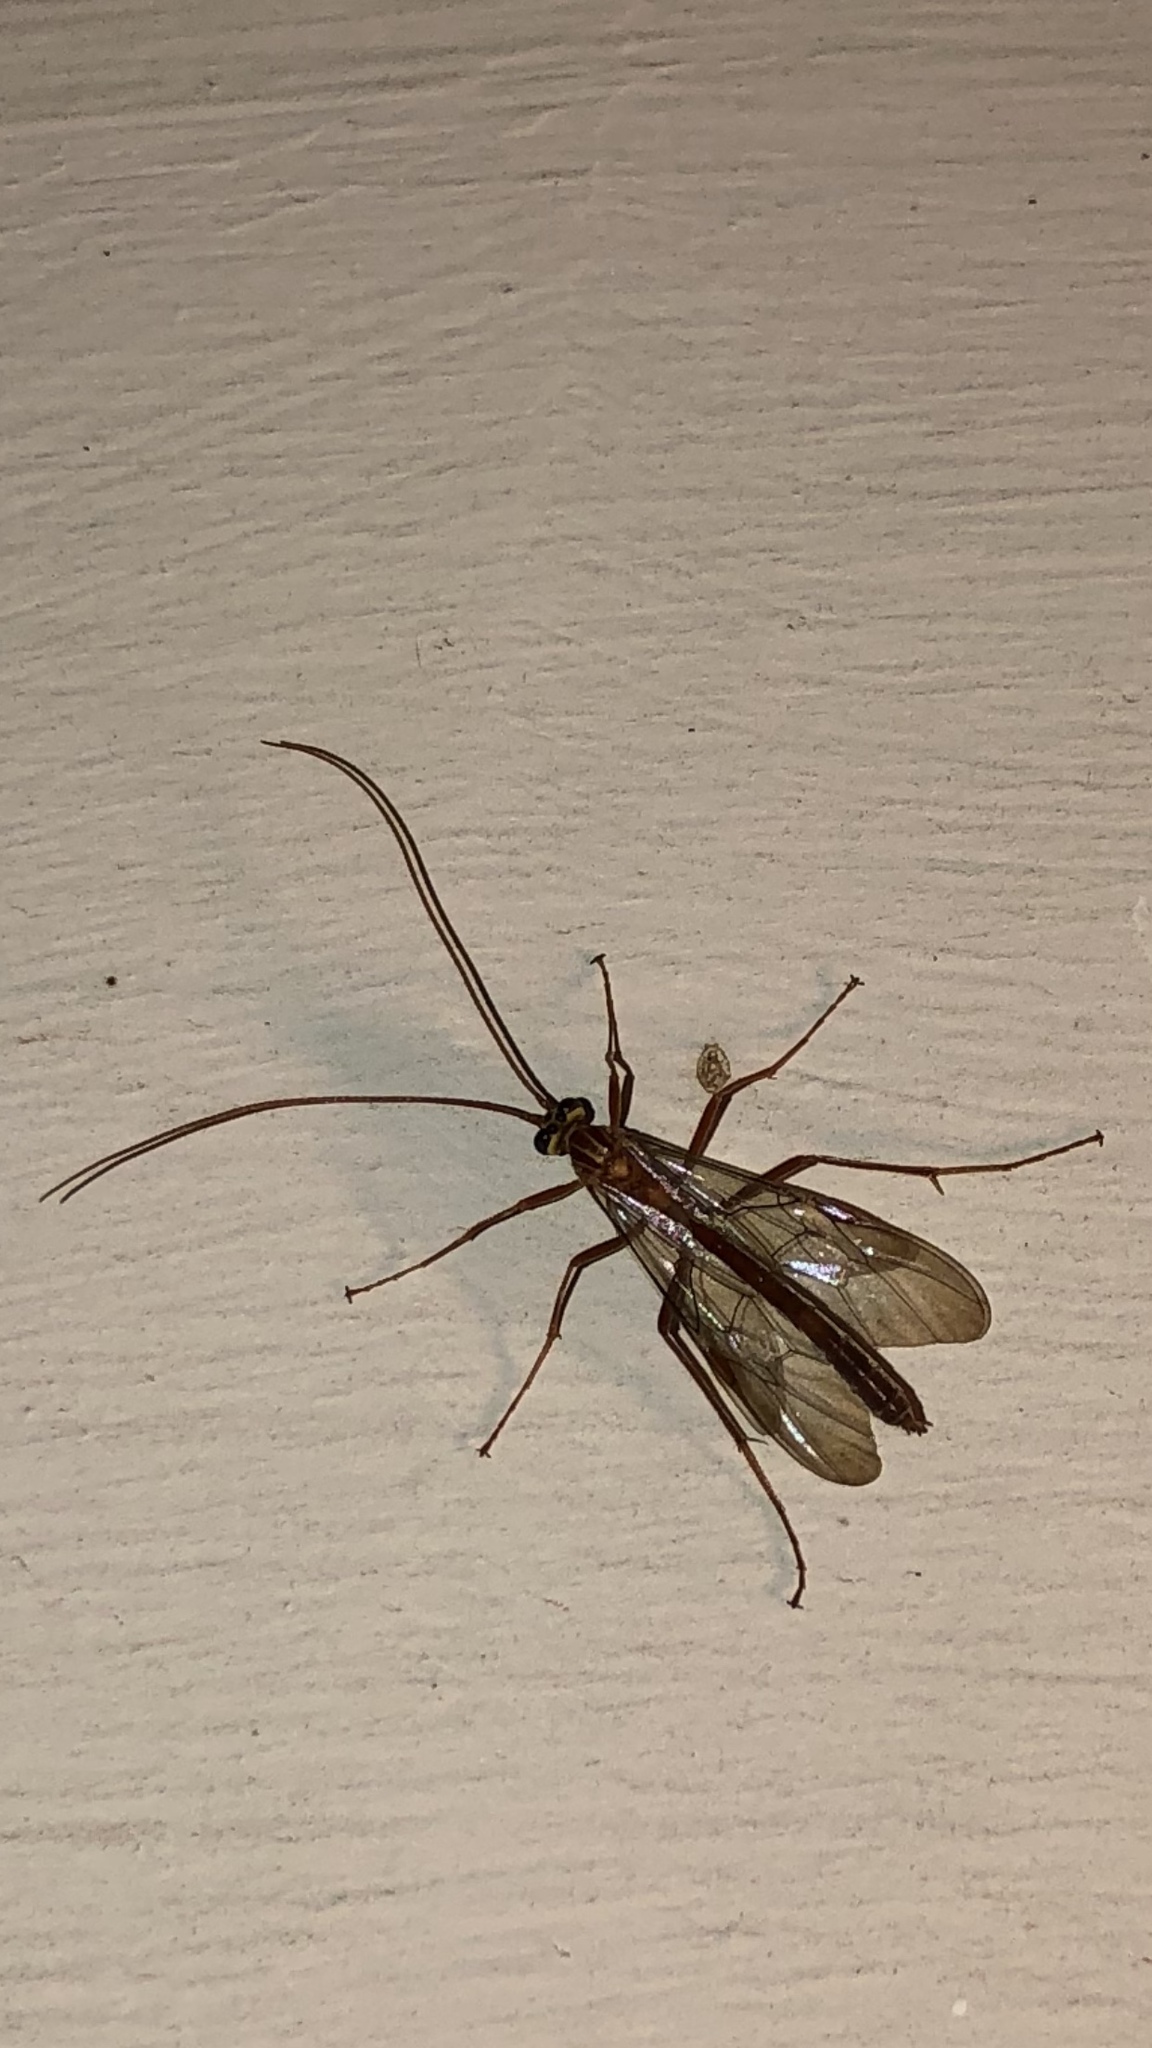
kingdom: Animalia
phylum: Arthropoda
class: Insecta
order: Hymenoptera
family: Ichneumonidae
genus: Ophion
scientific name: Ophion
